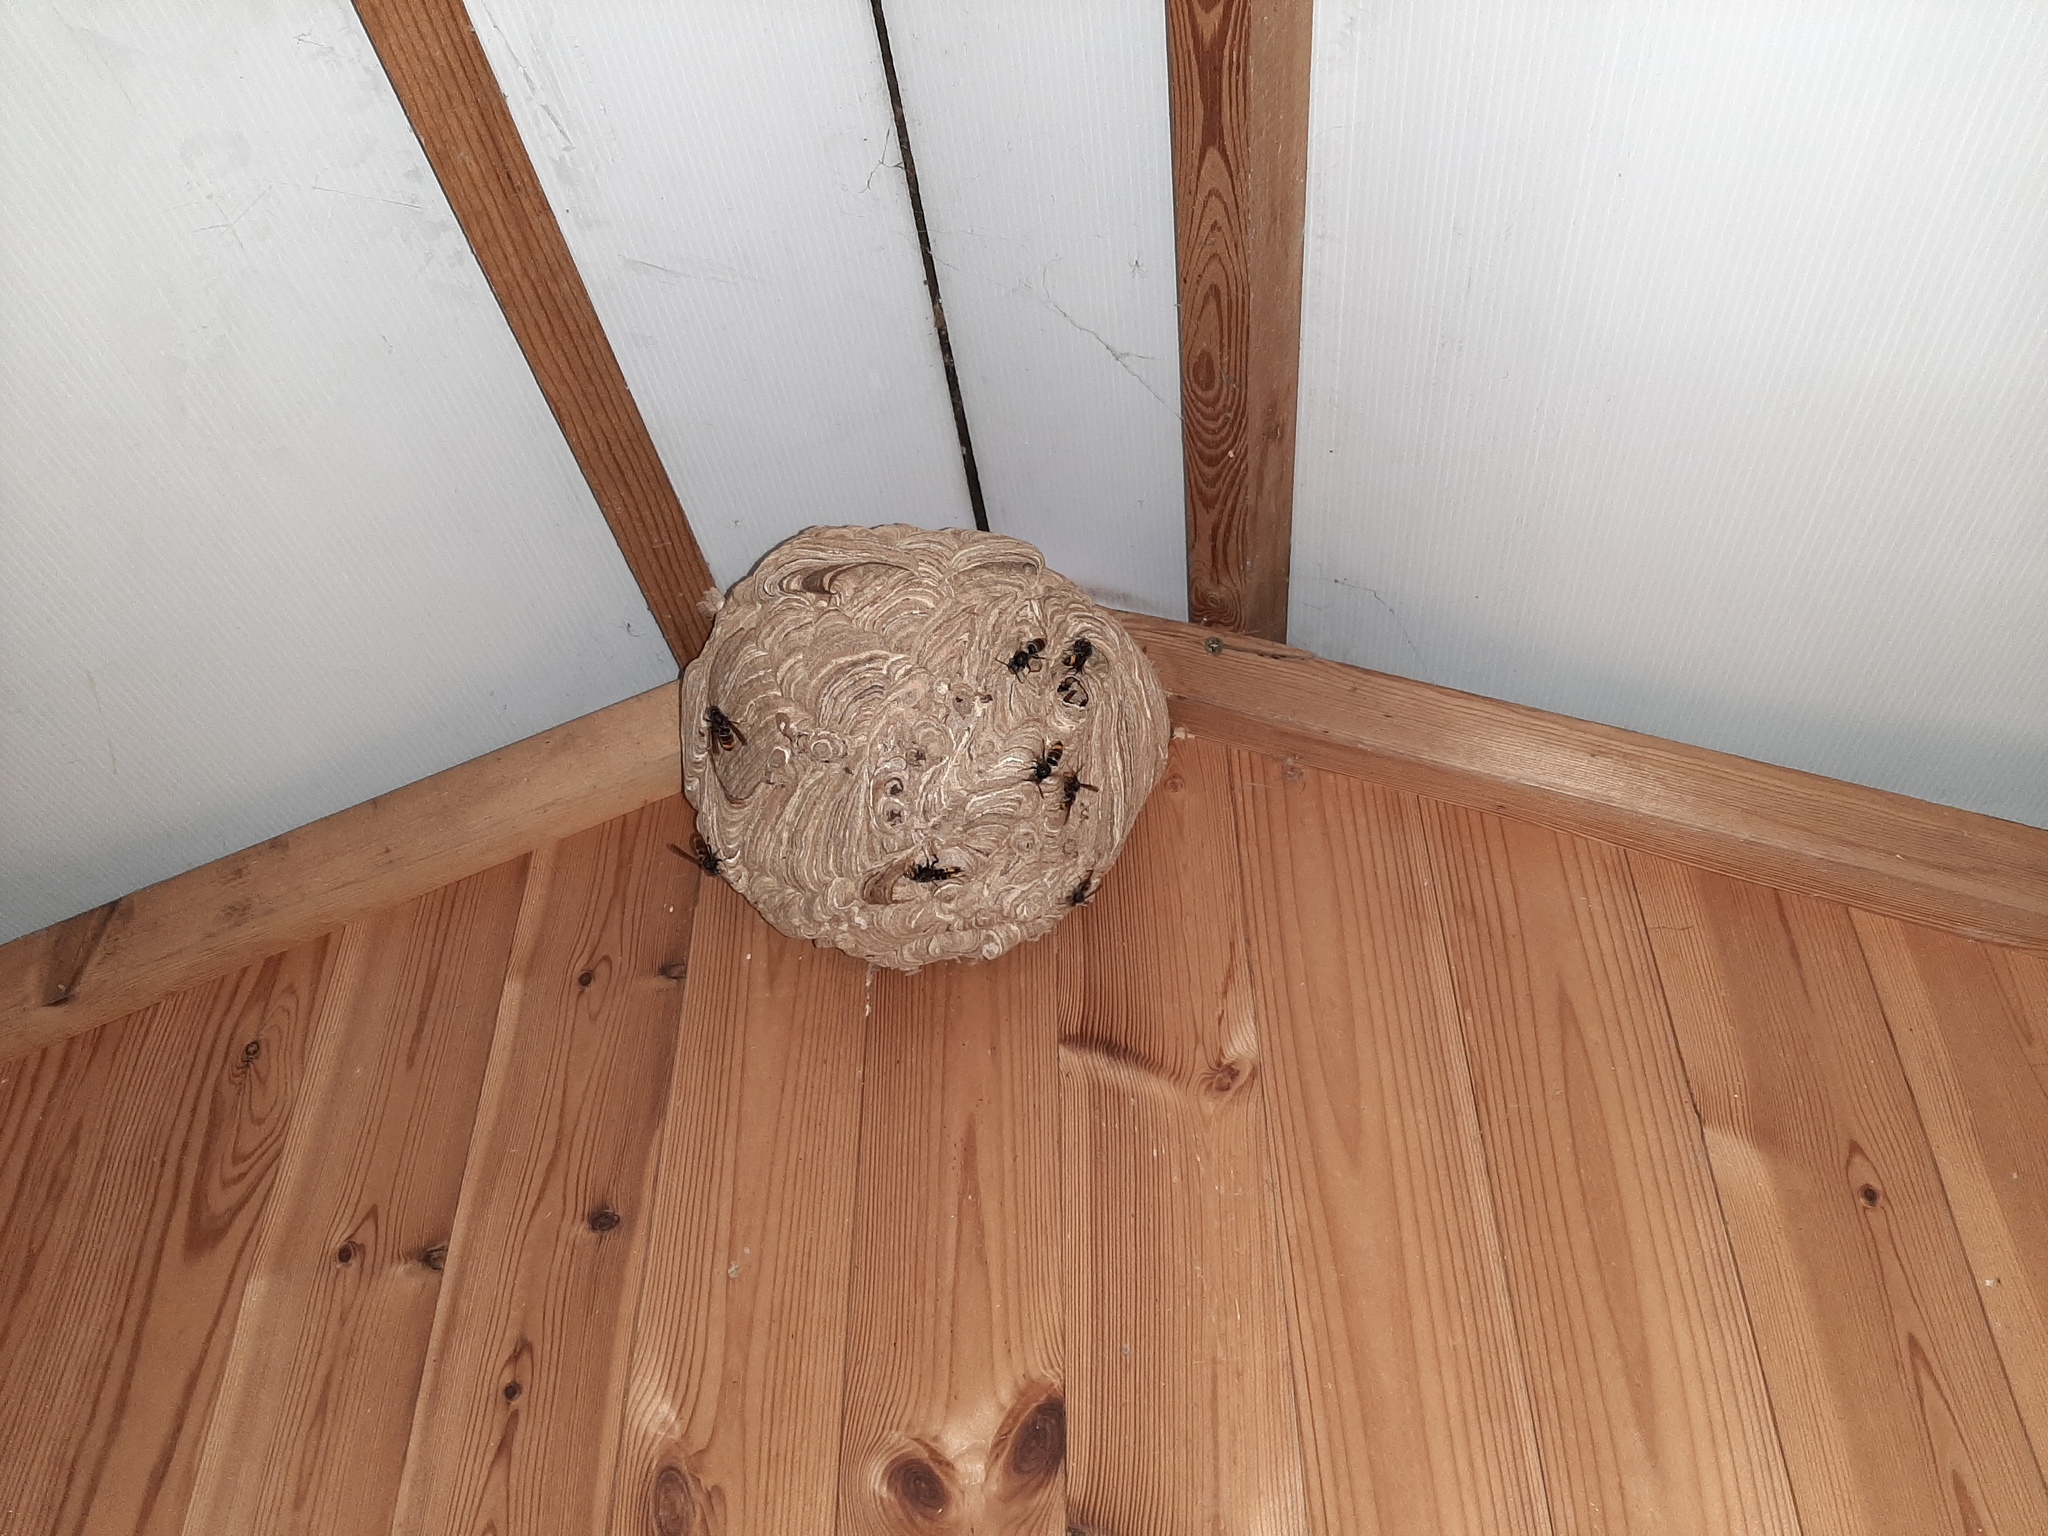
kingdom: Animalia
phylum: Arthropoda
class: Insecta
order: Hymenoptera
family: Vespidae
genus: Vespa
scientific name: Vespa velutina
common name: Asian hornet
